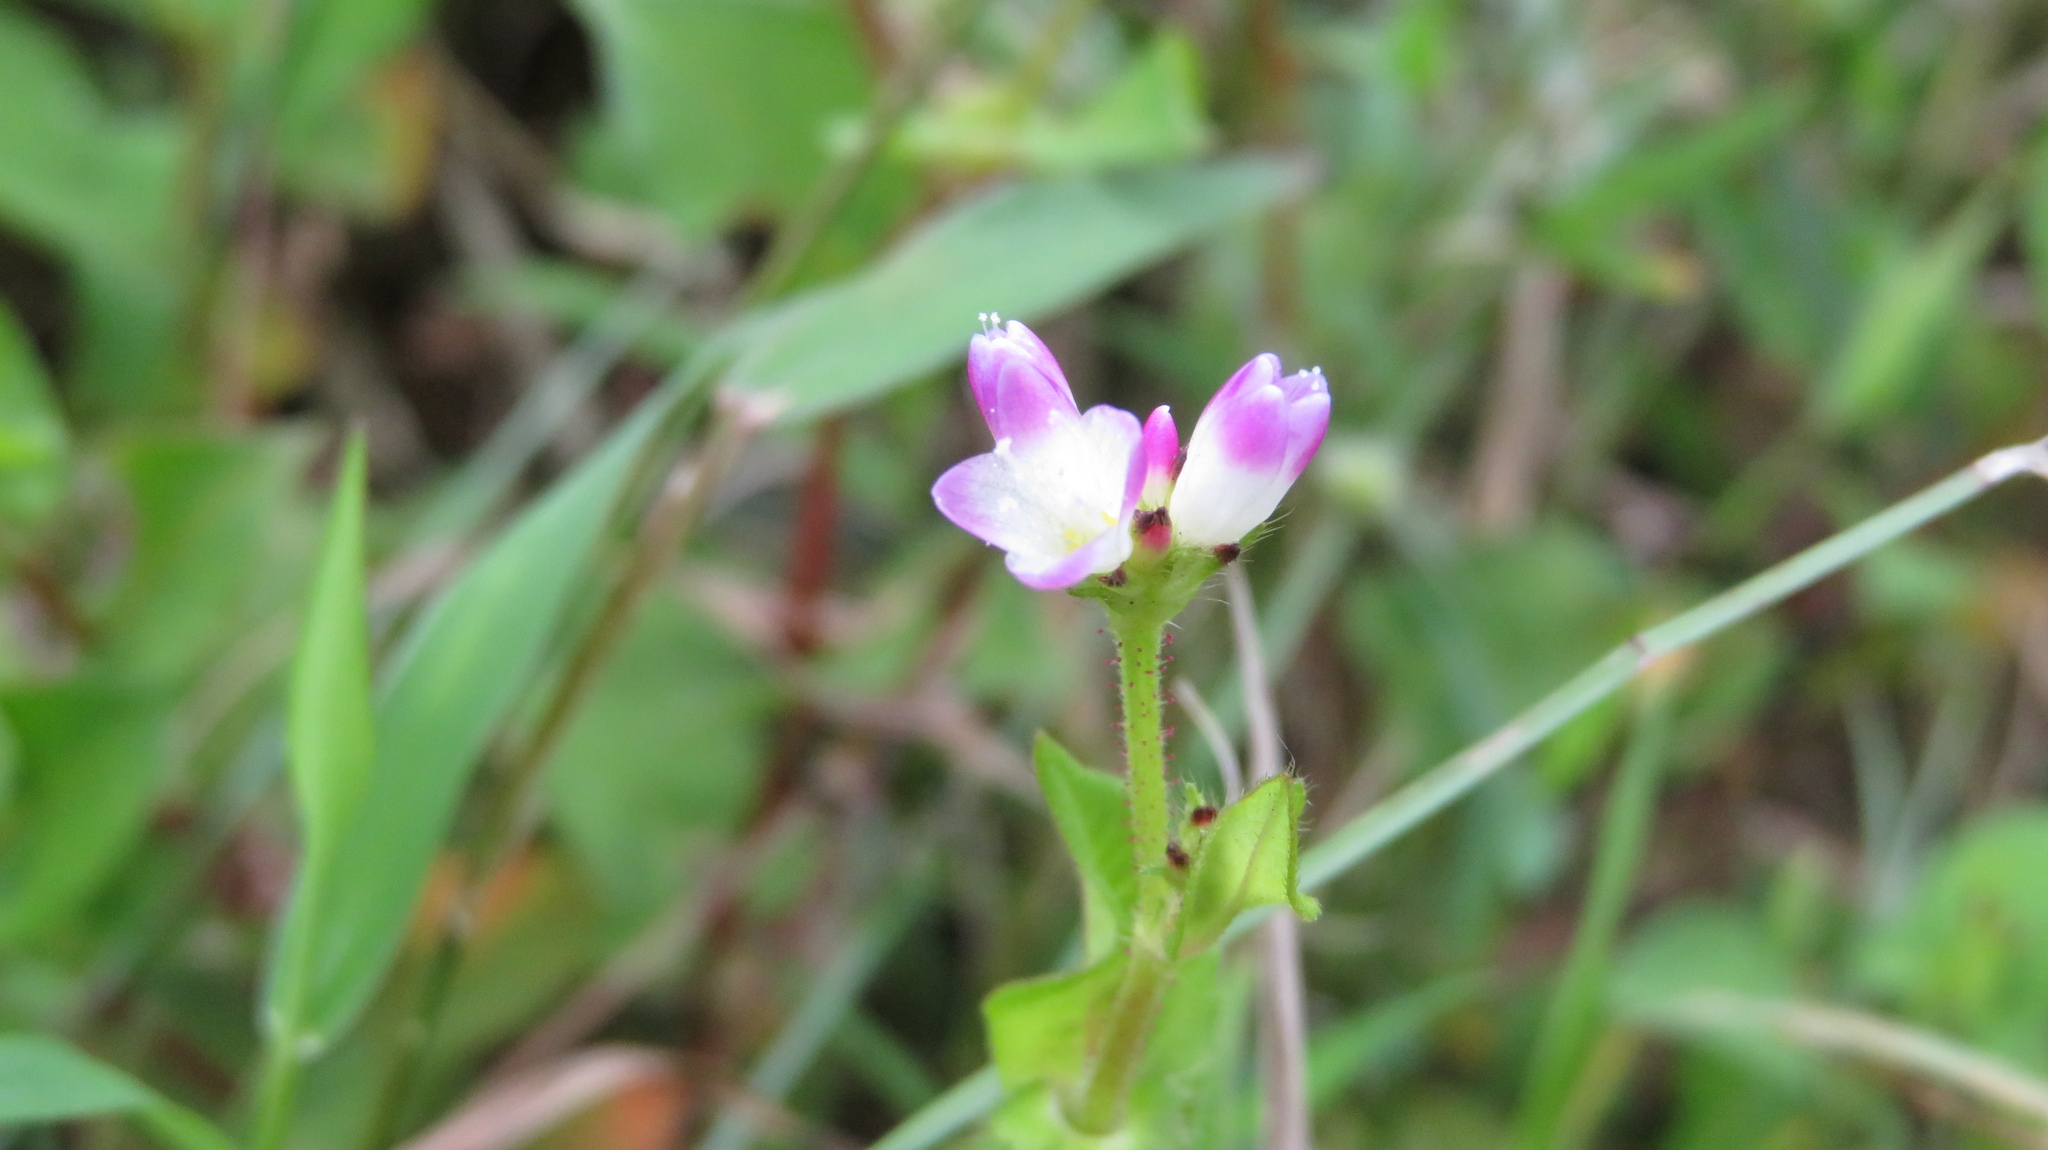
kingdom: Plantae
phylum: Tracheophyta
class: Magnoliopsida
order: Caryophyllales
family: Polygonaceae
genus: Persicaria
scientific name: Persicaria thunbergii
